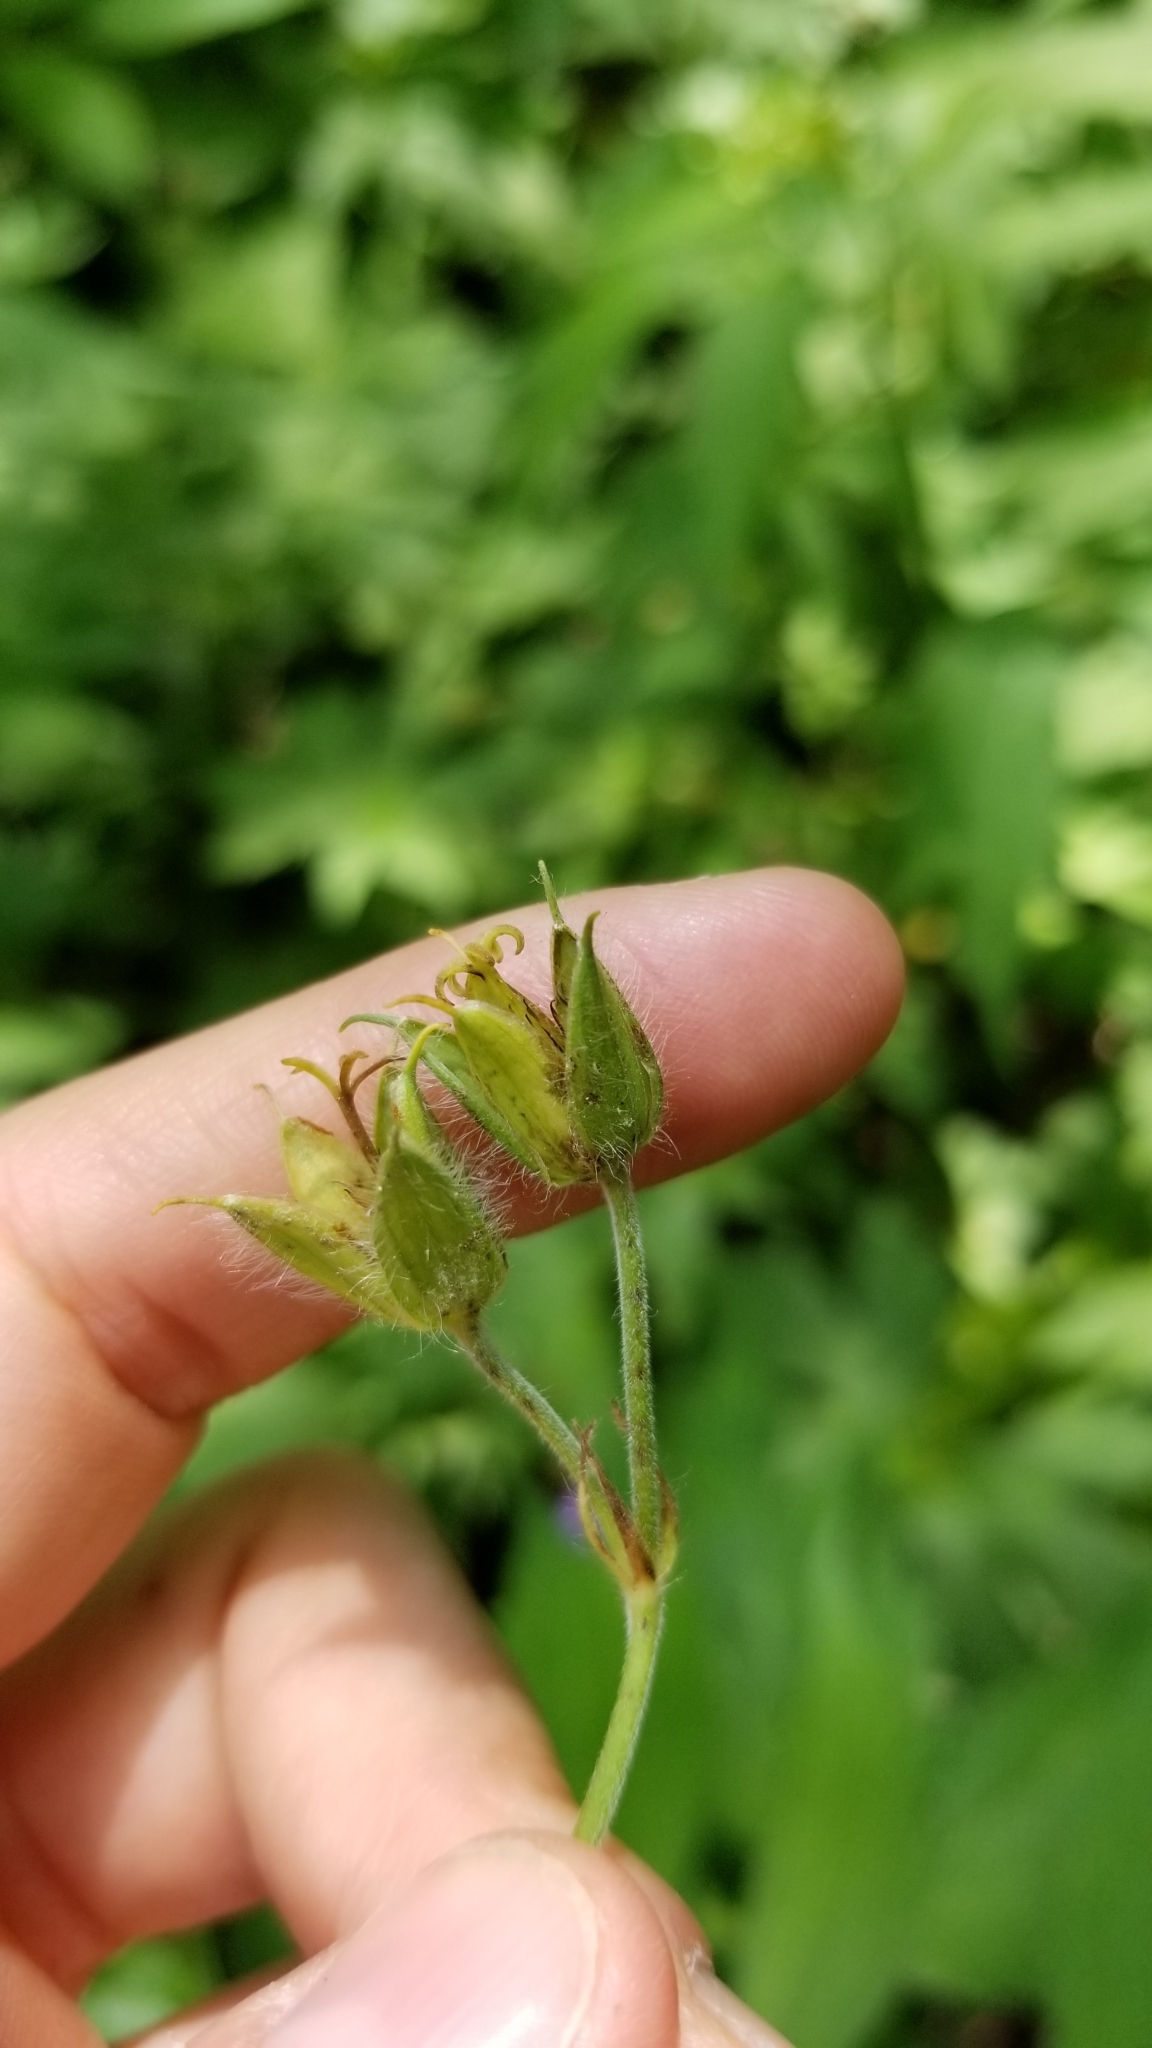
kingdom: Plantae
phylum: Tracheophyta
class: Magnoliopsida
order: Geraniales
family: Geraniaceae
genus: Geranium
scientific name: Geranium maculatum
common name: Spotted geranium
